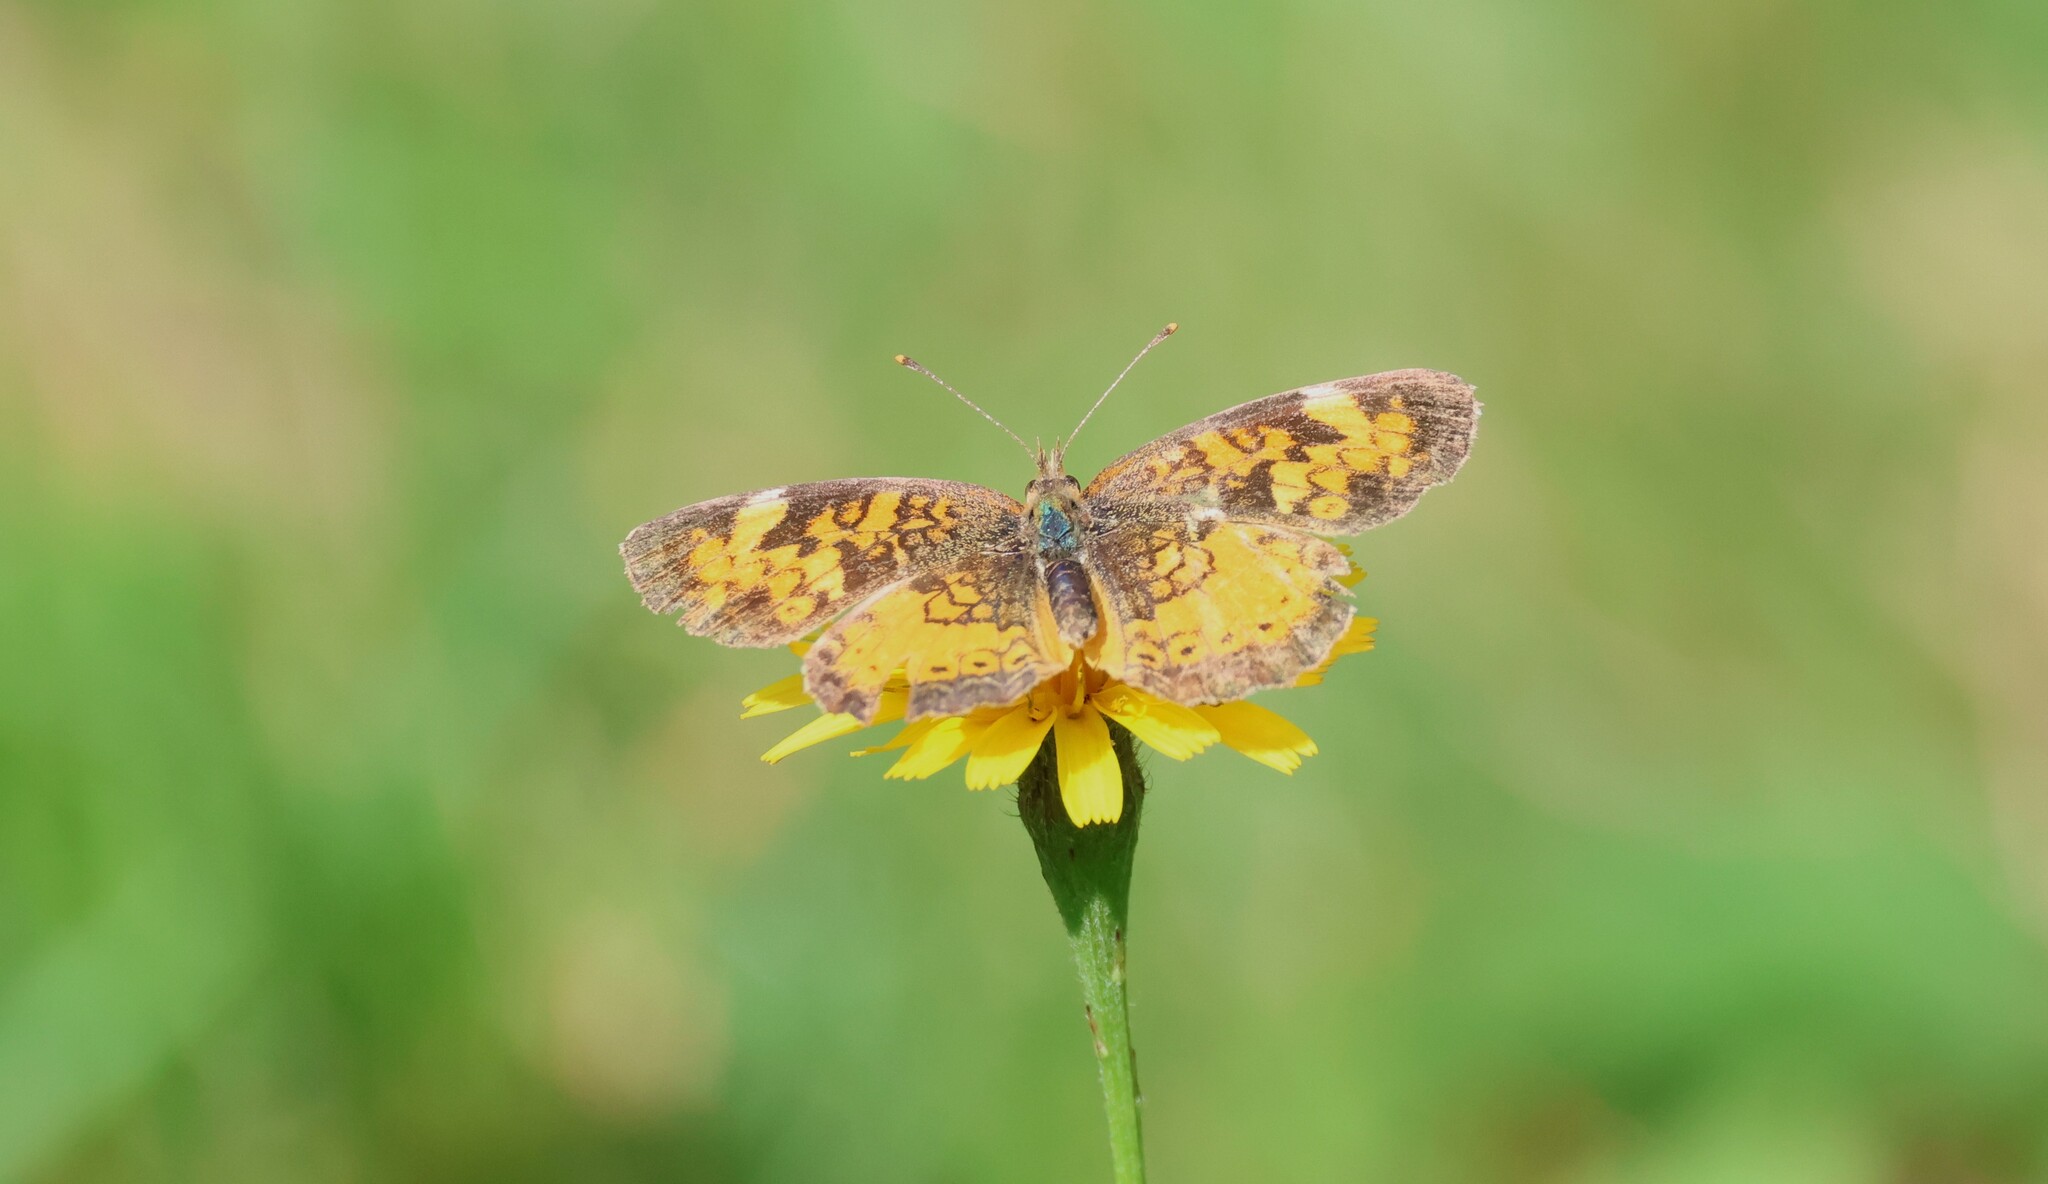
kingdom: Animalia
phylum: Arthropoda
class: Insecta
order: Lepidoptera
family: Nymphalidae
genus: Phyciodes
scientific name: Phyciodes tharos
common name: Pearl crescent
